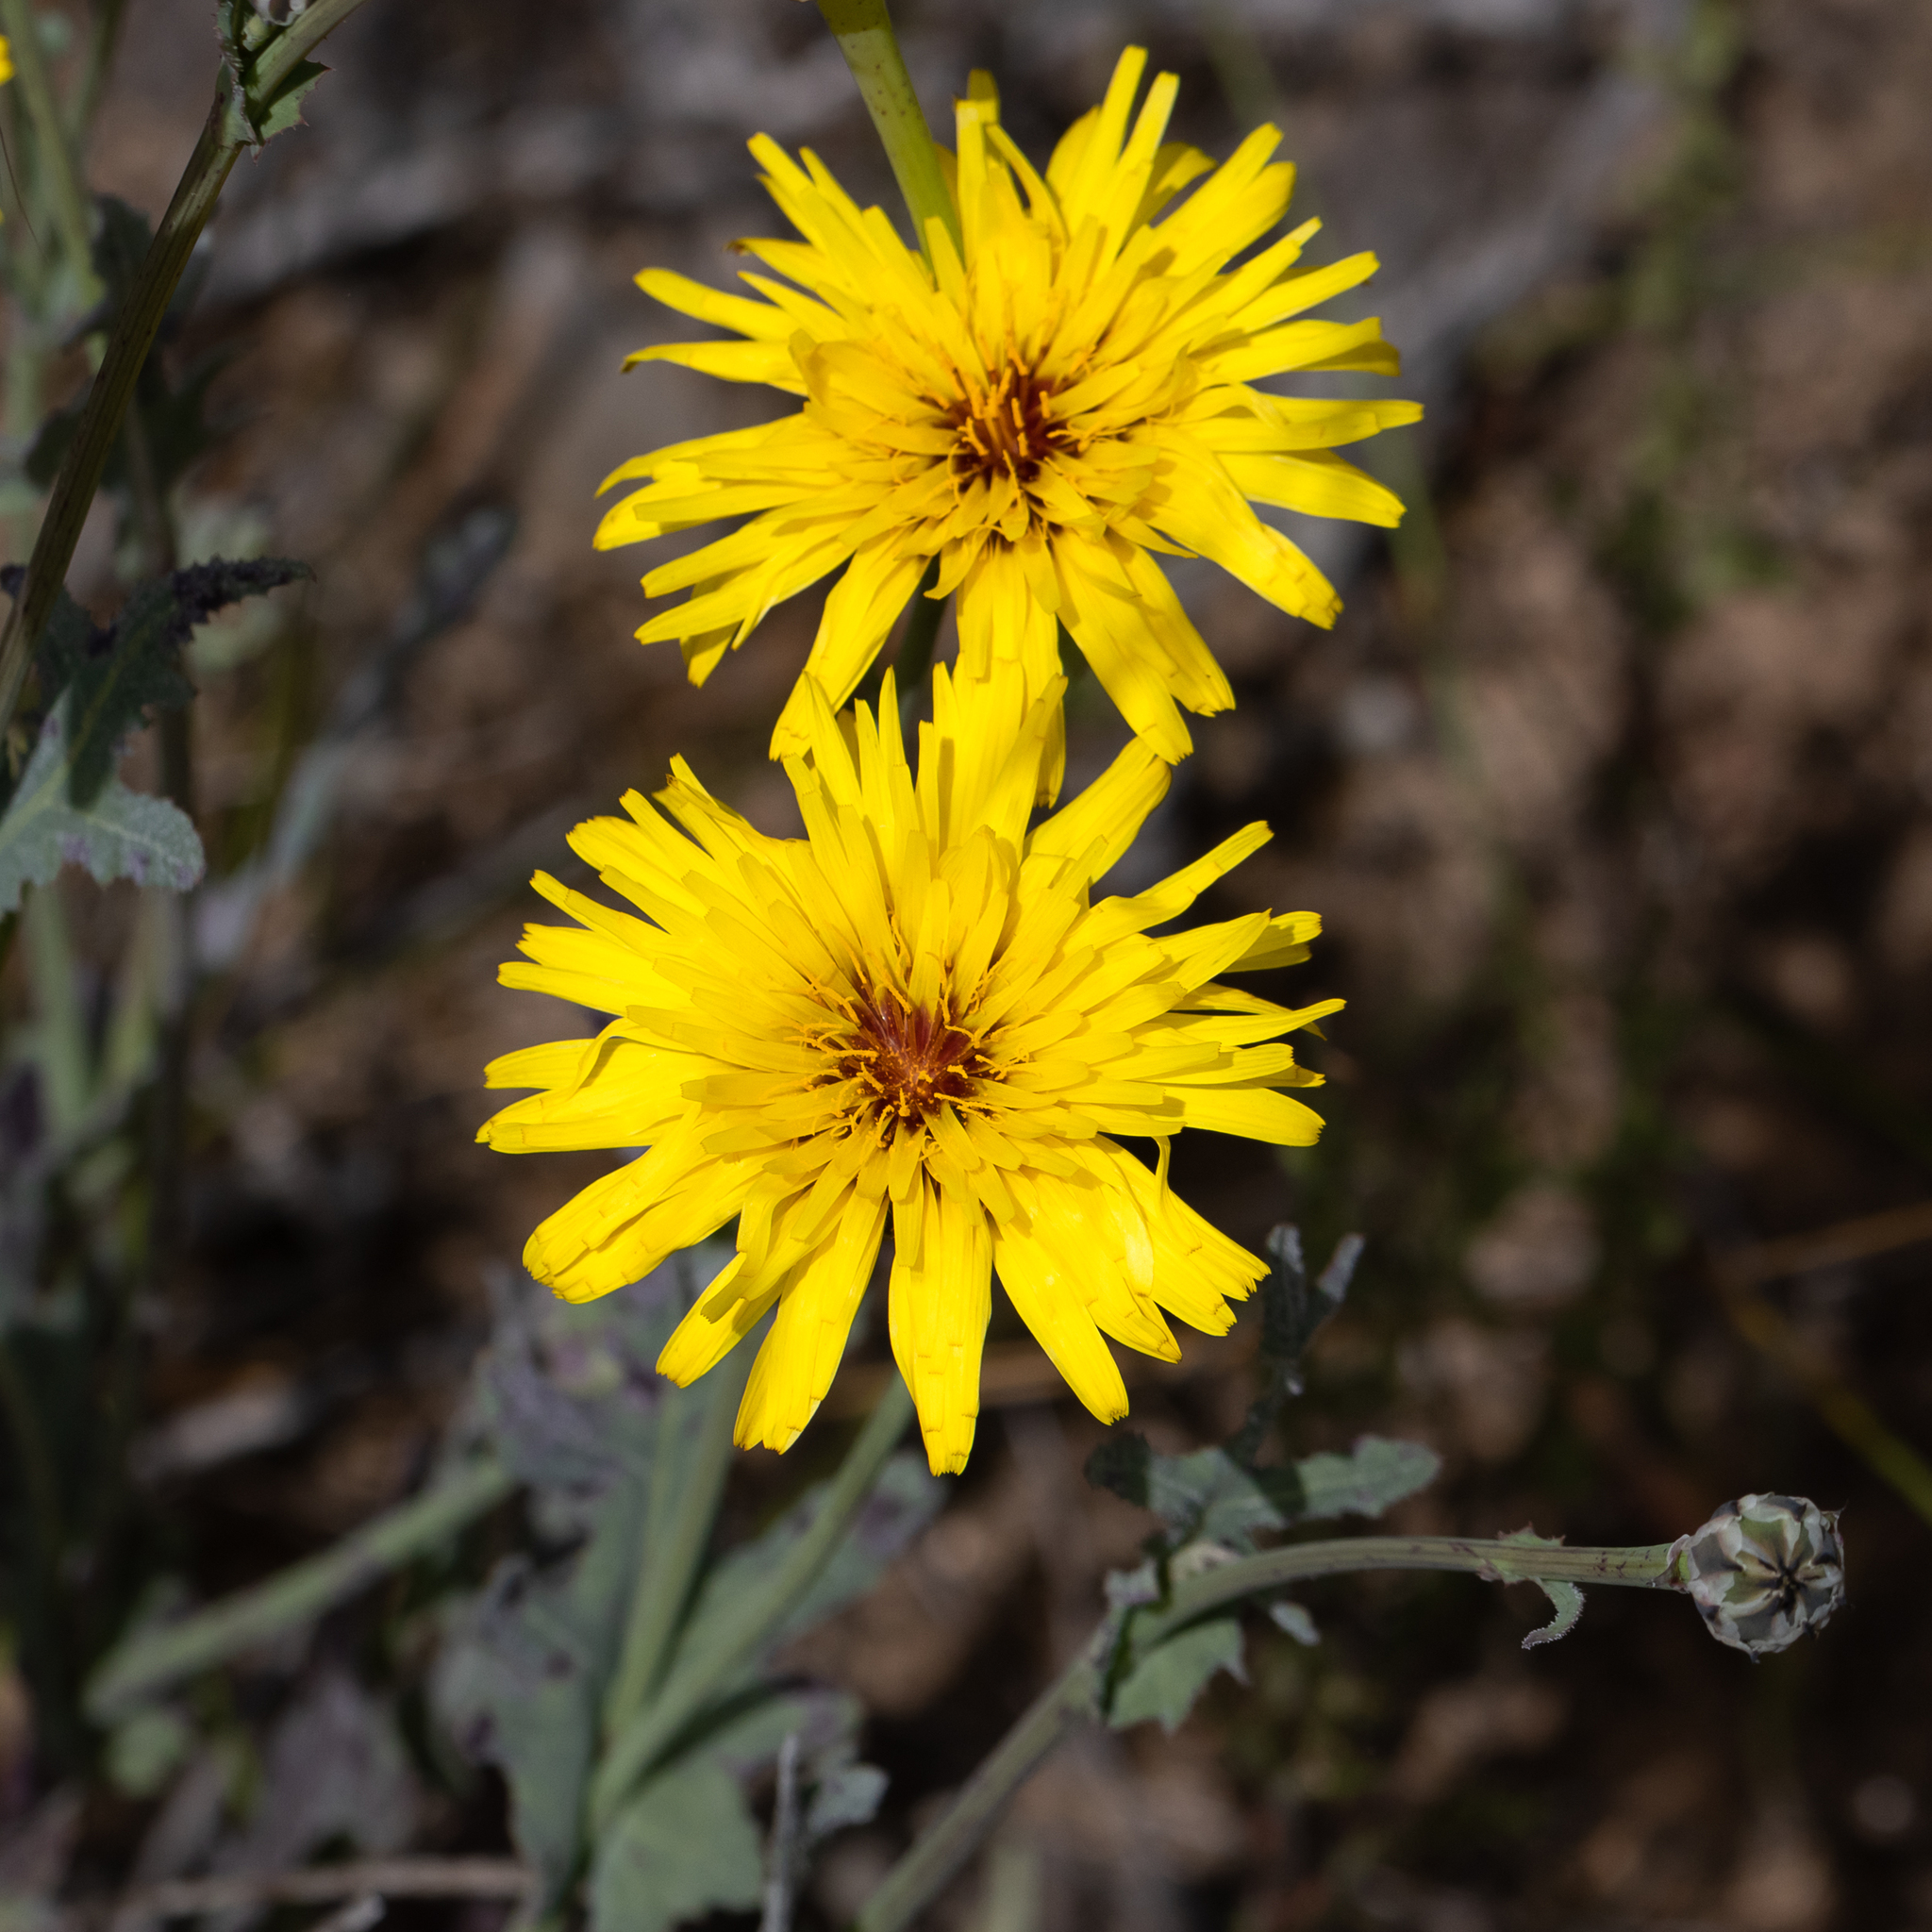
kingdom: Plantae
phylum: Tracheophyta
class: Magnoliopsida
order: Asterales
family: Asteraceae
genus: Reichardia
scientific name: Reichardia tingitana
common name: Reichardia
